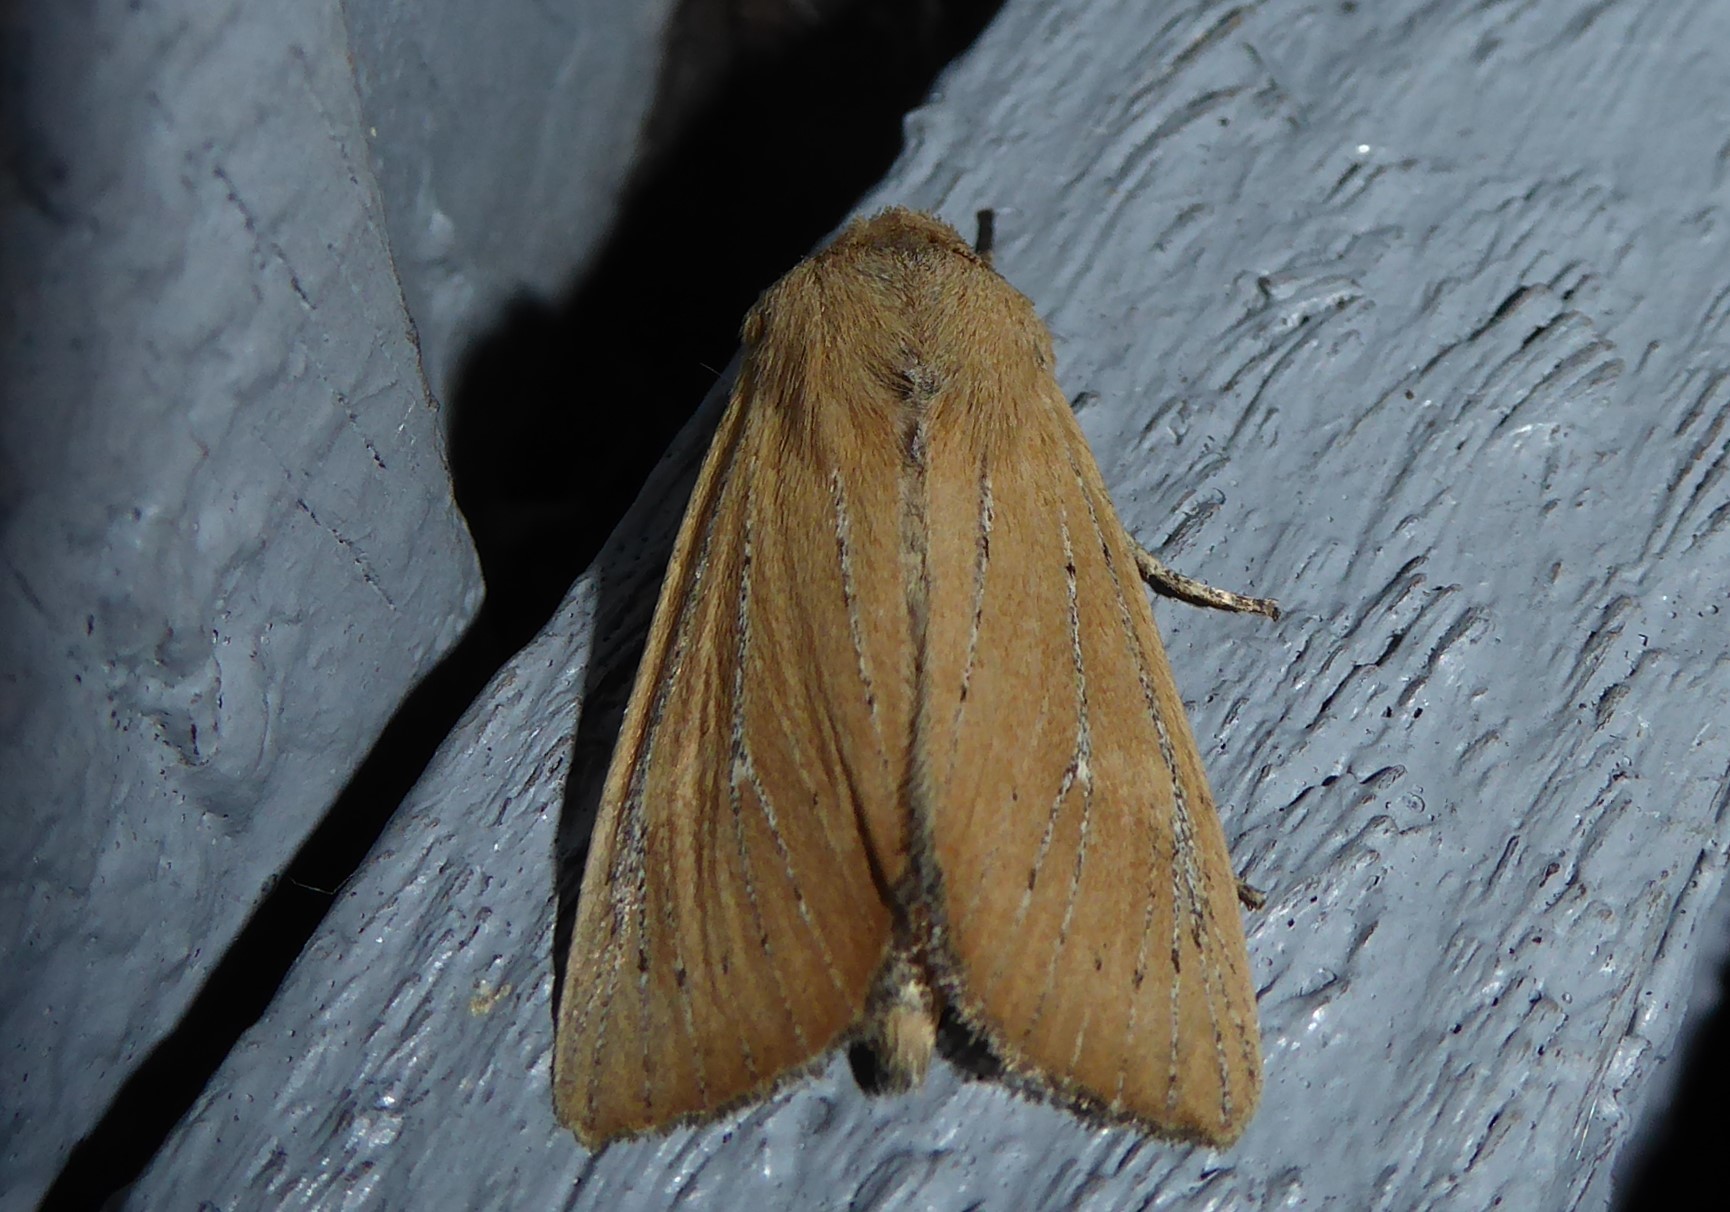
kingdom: Animalia
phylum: Arthropoda
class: Insecta
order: Lepidoptera
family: Noctuidae
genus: Ichneutica
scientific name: Ichneutica blenheimensis
